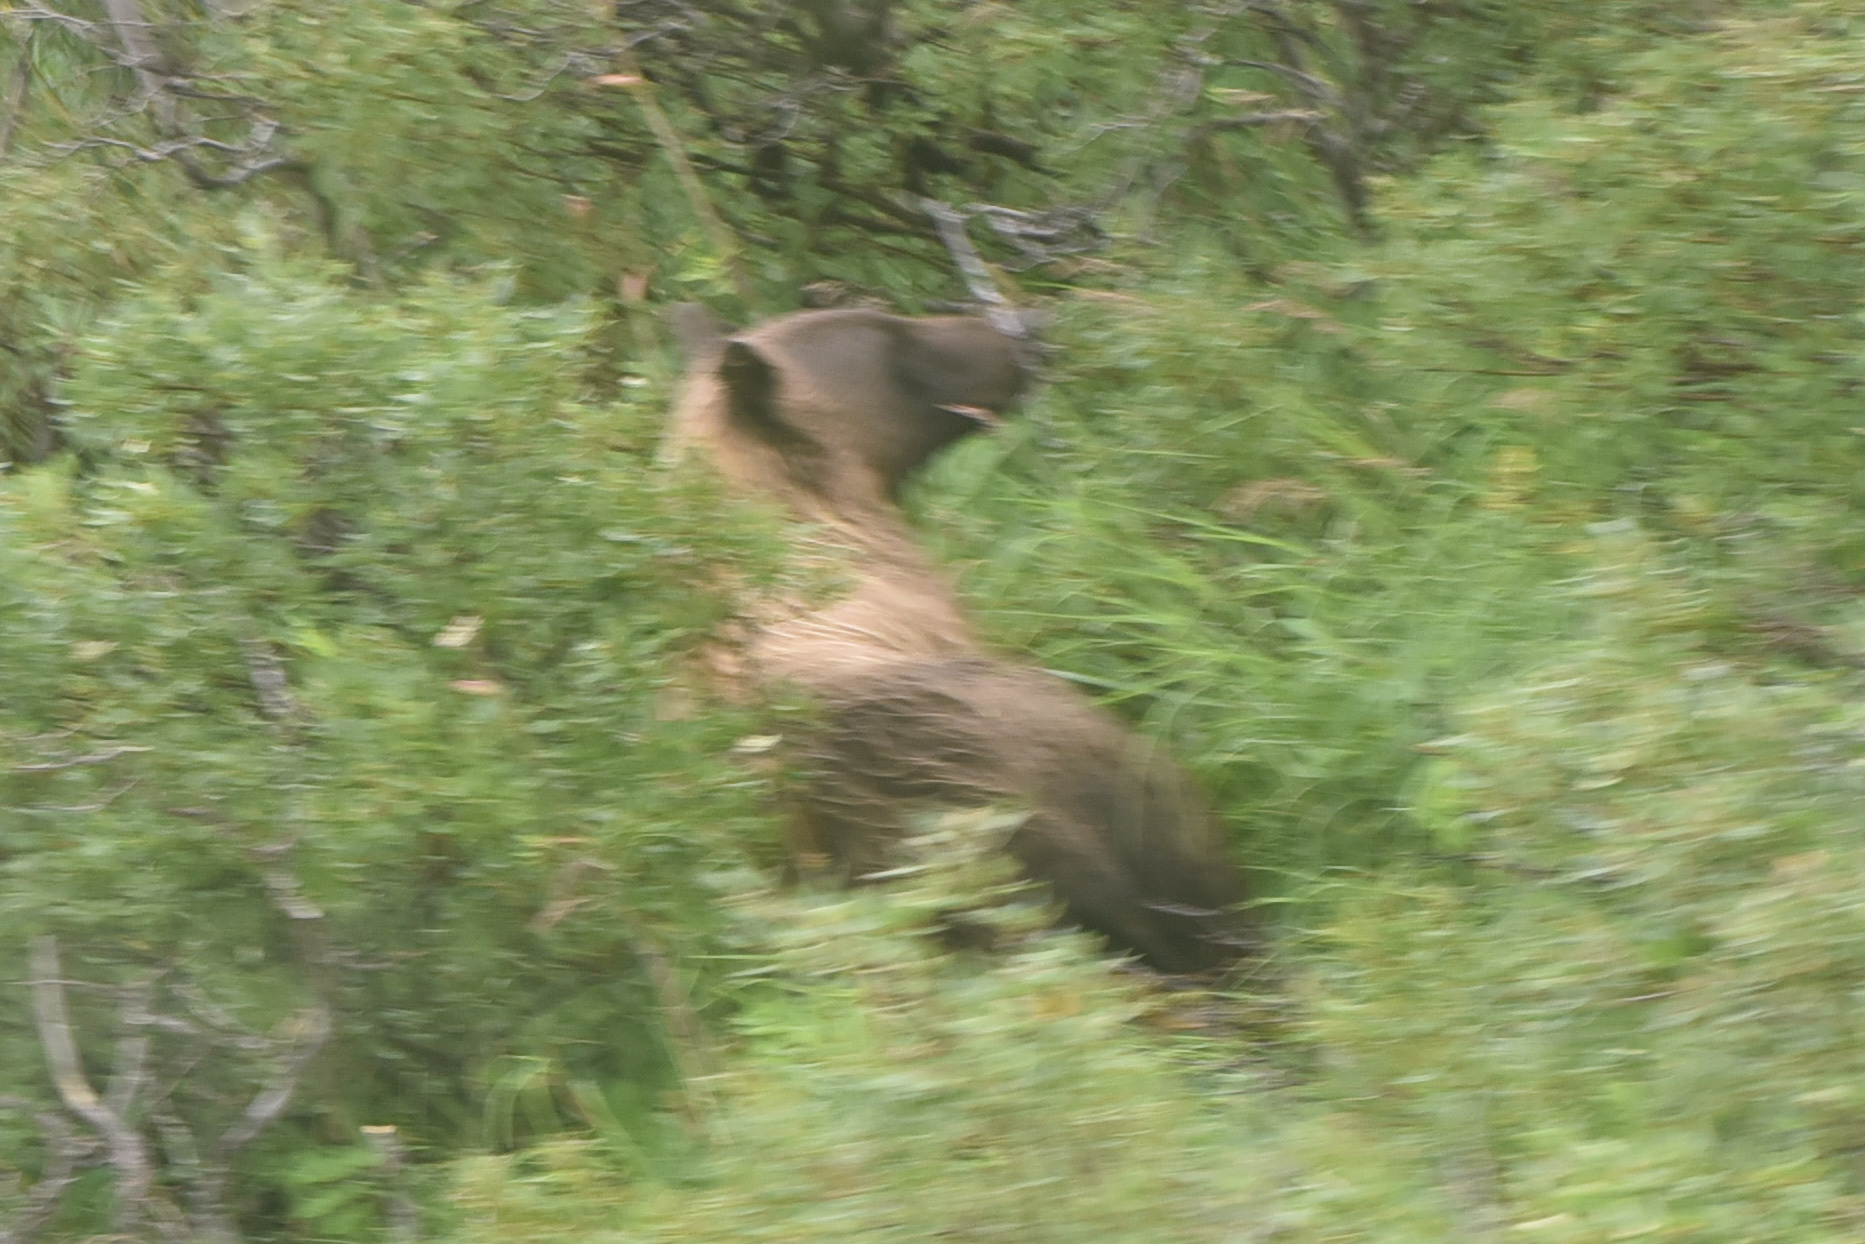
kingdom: Animalia
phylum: Chordata
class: Mammalia
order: Carnivora
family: Ursidae
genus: Ursus
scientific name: Ursus arctos
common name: Brown bear
